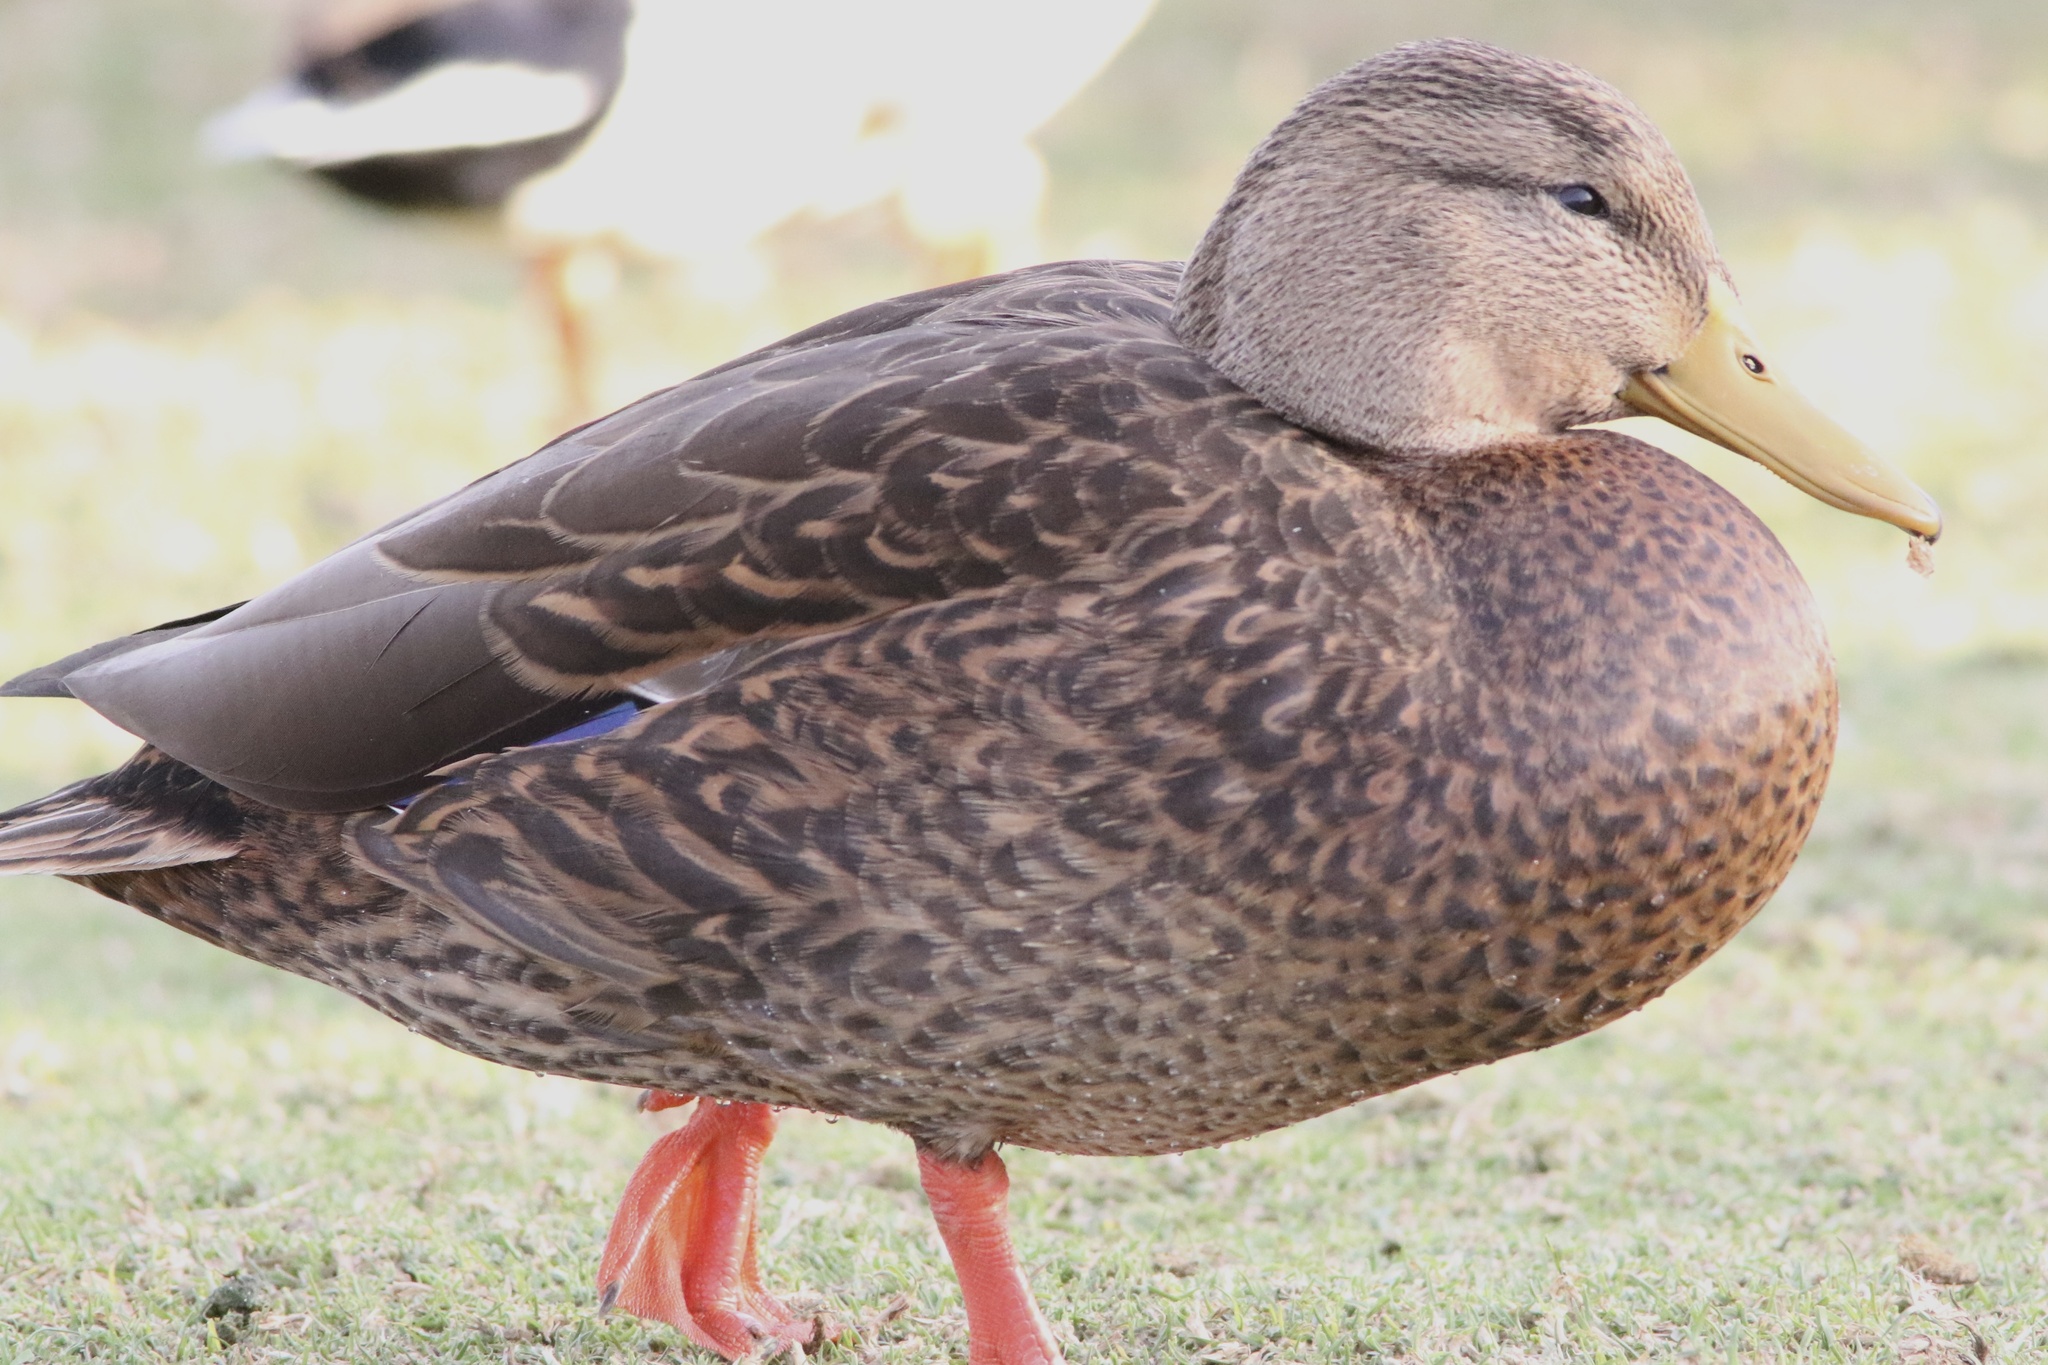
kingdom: Animalia
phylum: Chordata
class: Aves
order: Anseriformes
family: Anatidae
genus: Anas
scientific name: Anas diazi
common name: Mexican duck
